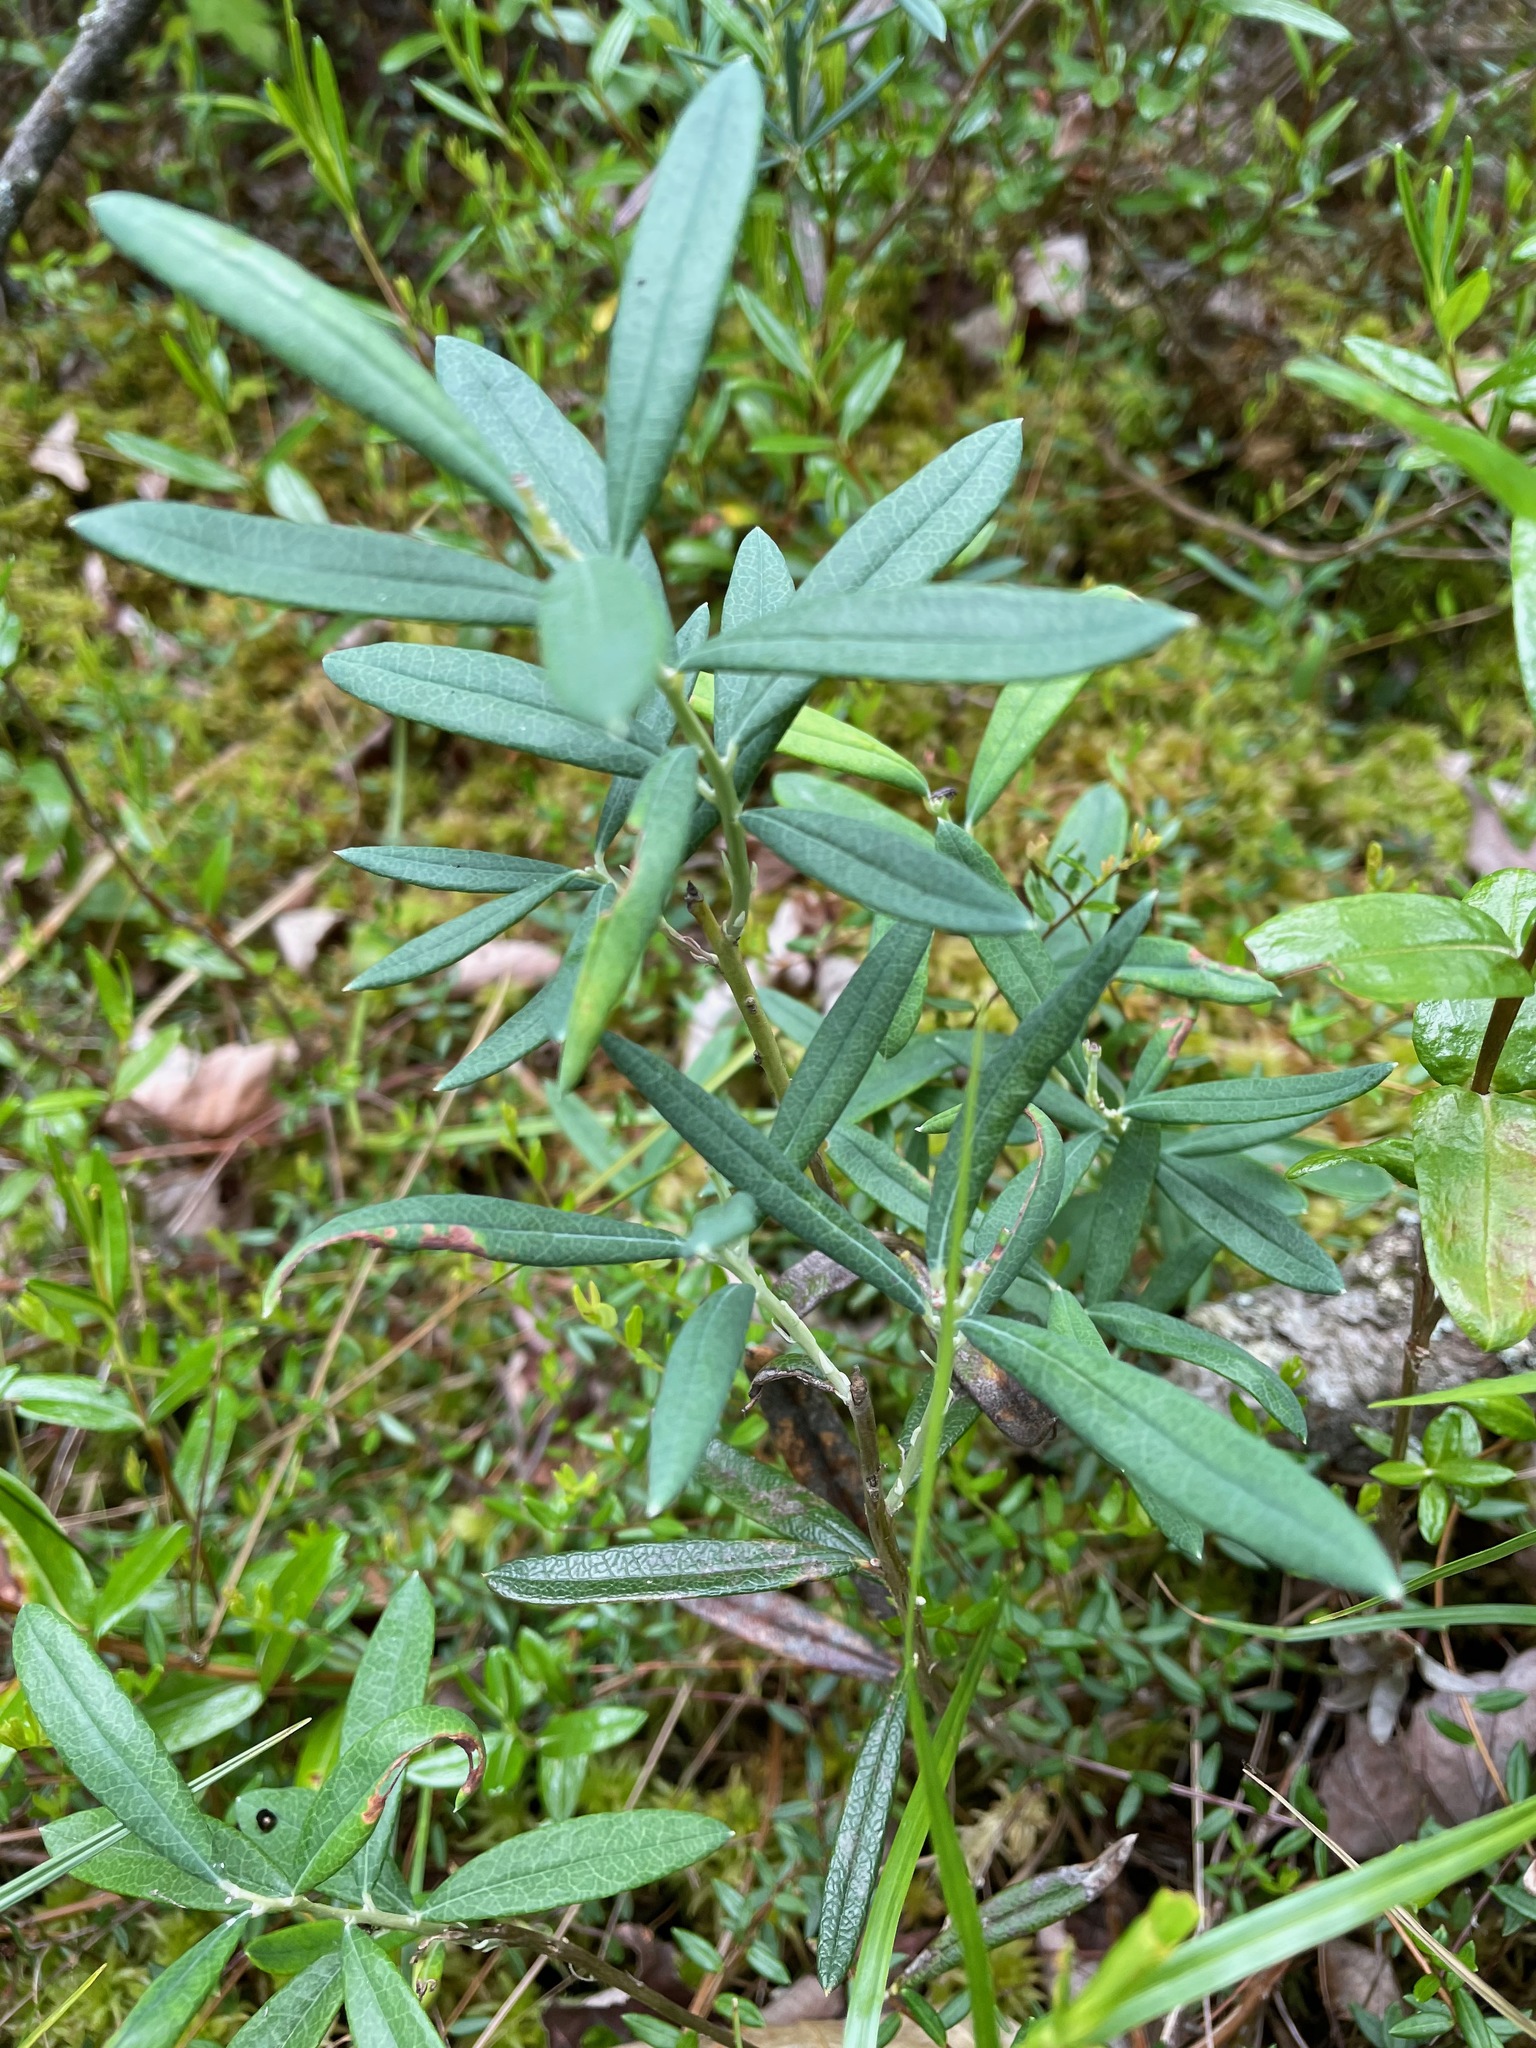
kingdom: Plantae
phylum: Tracheophyta
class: Magnoliopsida
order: Ericales
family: Ericaceae
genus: Andromeda
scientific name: Andromeda polifolia
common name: Bog-rosemary
